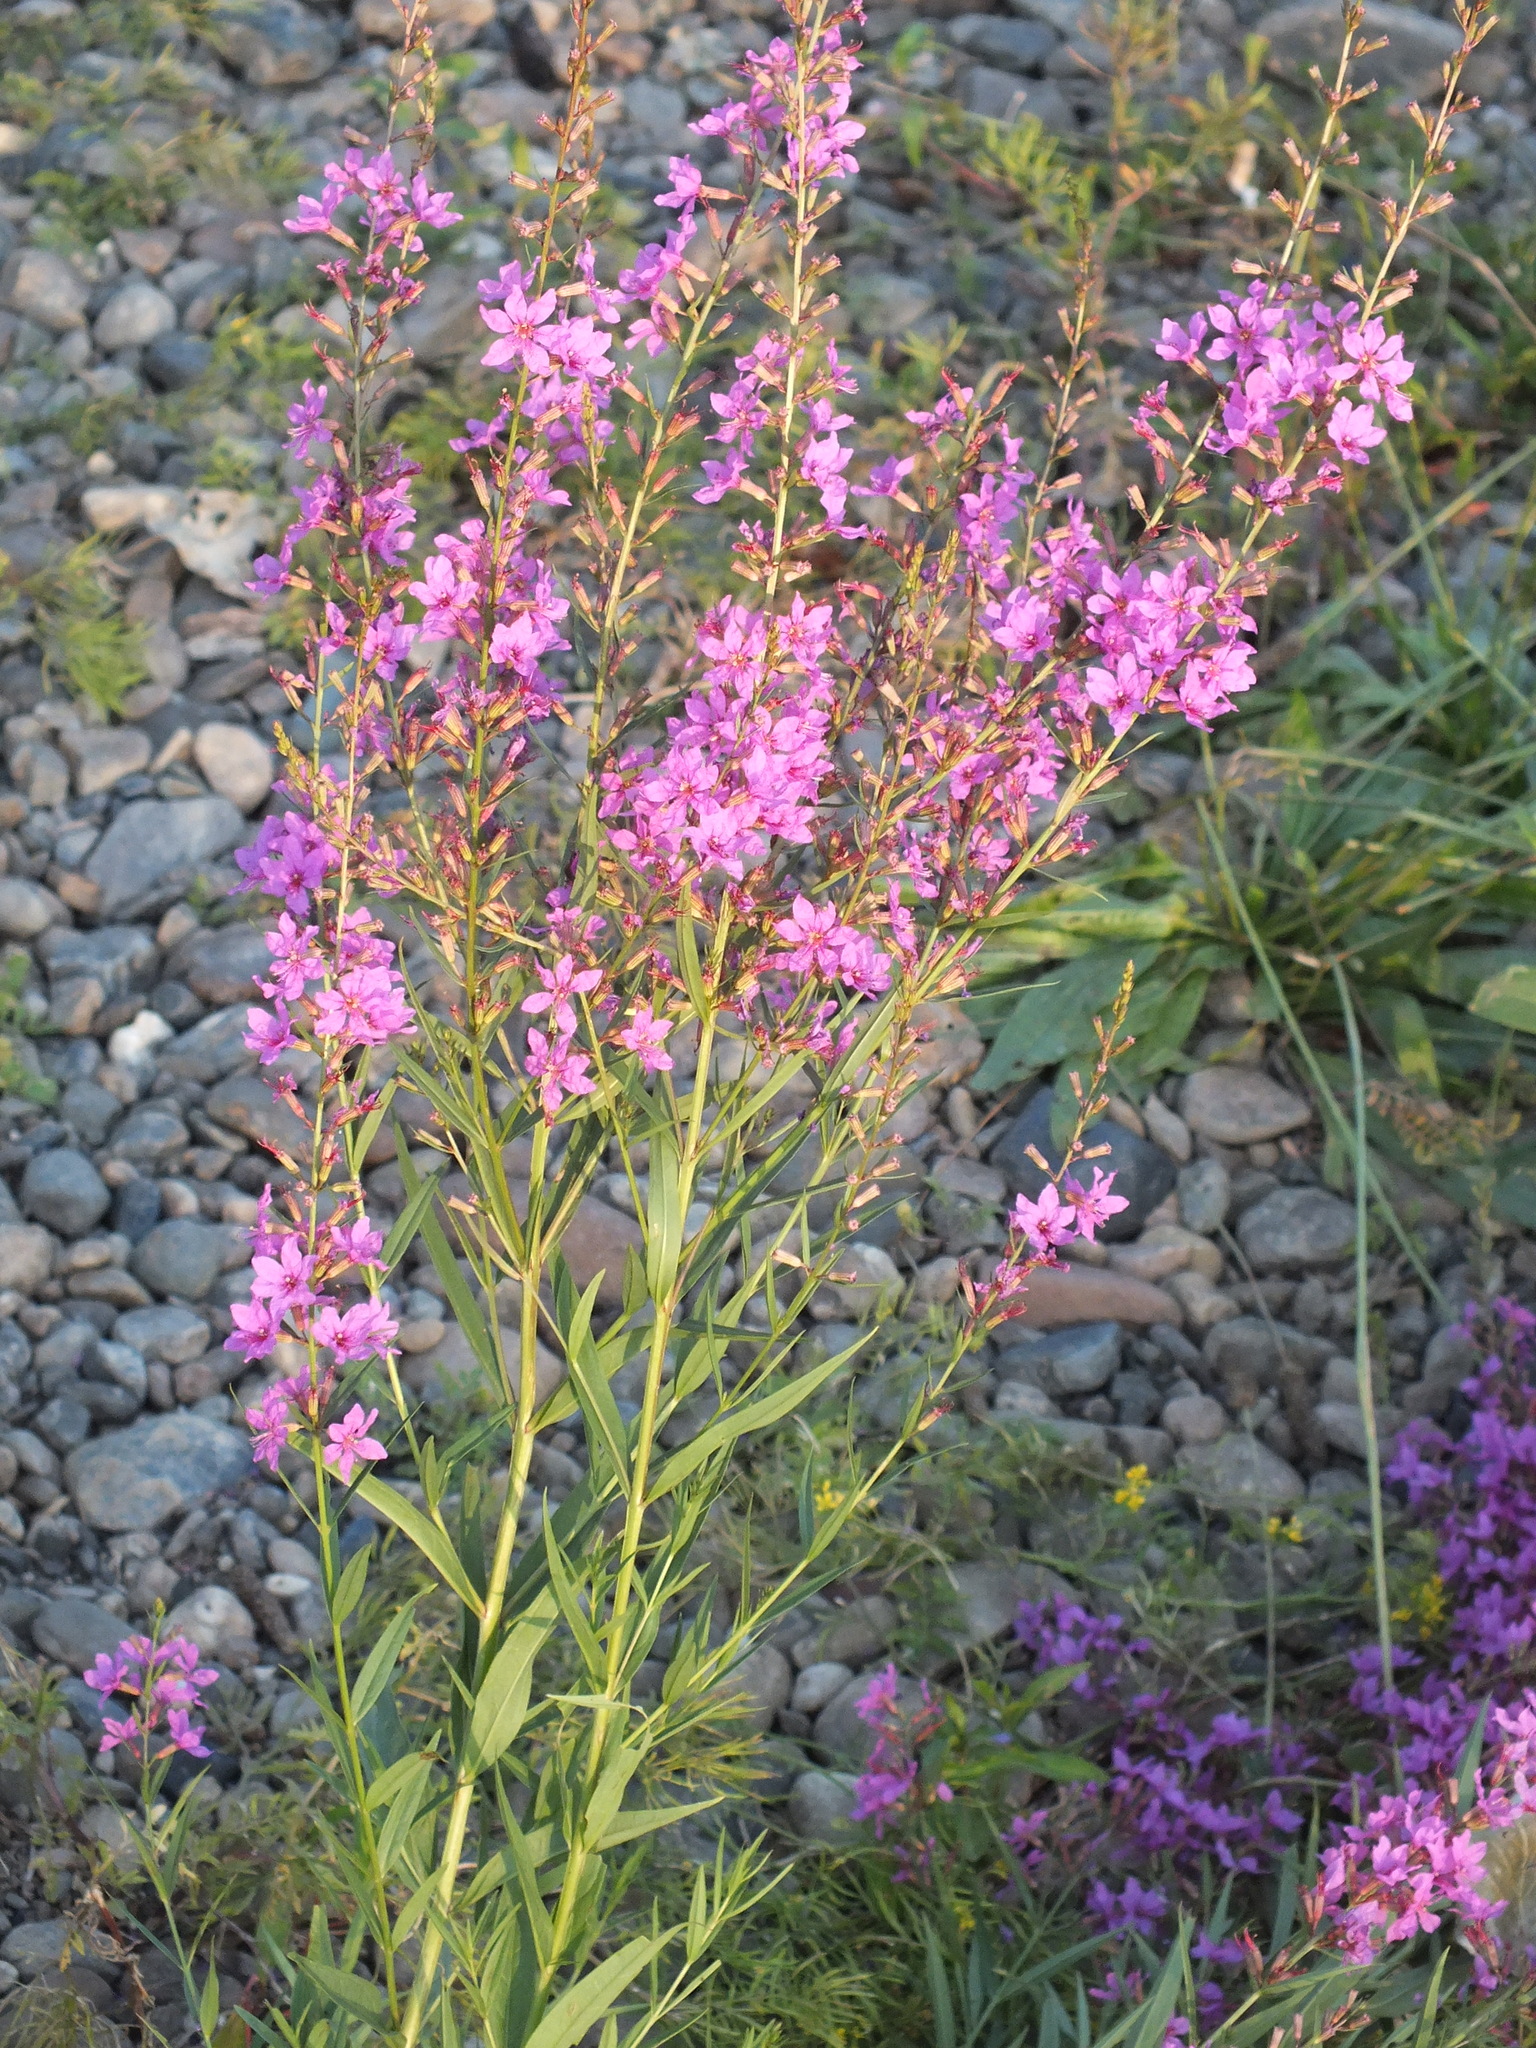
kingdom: Plantae
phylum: Tracheophyta
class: Magnoliopsida
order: Myrtales
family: Lythraceae
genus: Lythrum
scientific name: Lythrum salicaria
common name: Purple loosestrife
